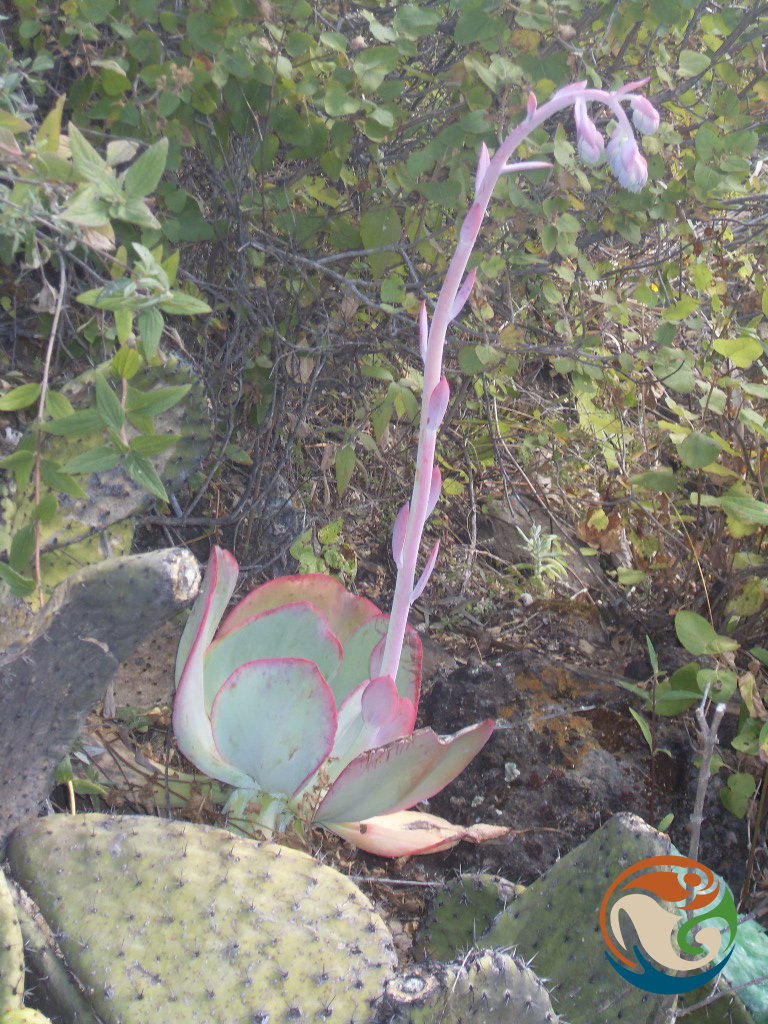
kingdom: Plantae
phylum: Tracheophyta
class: Magnoliopsida
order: Saxifragales
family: Crassulaceae
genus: Echeveria
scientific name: Echeveria gigantea
